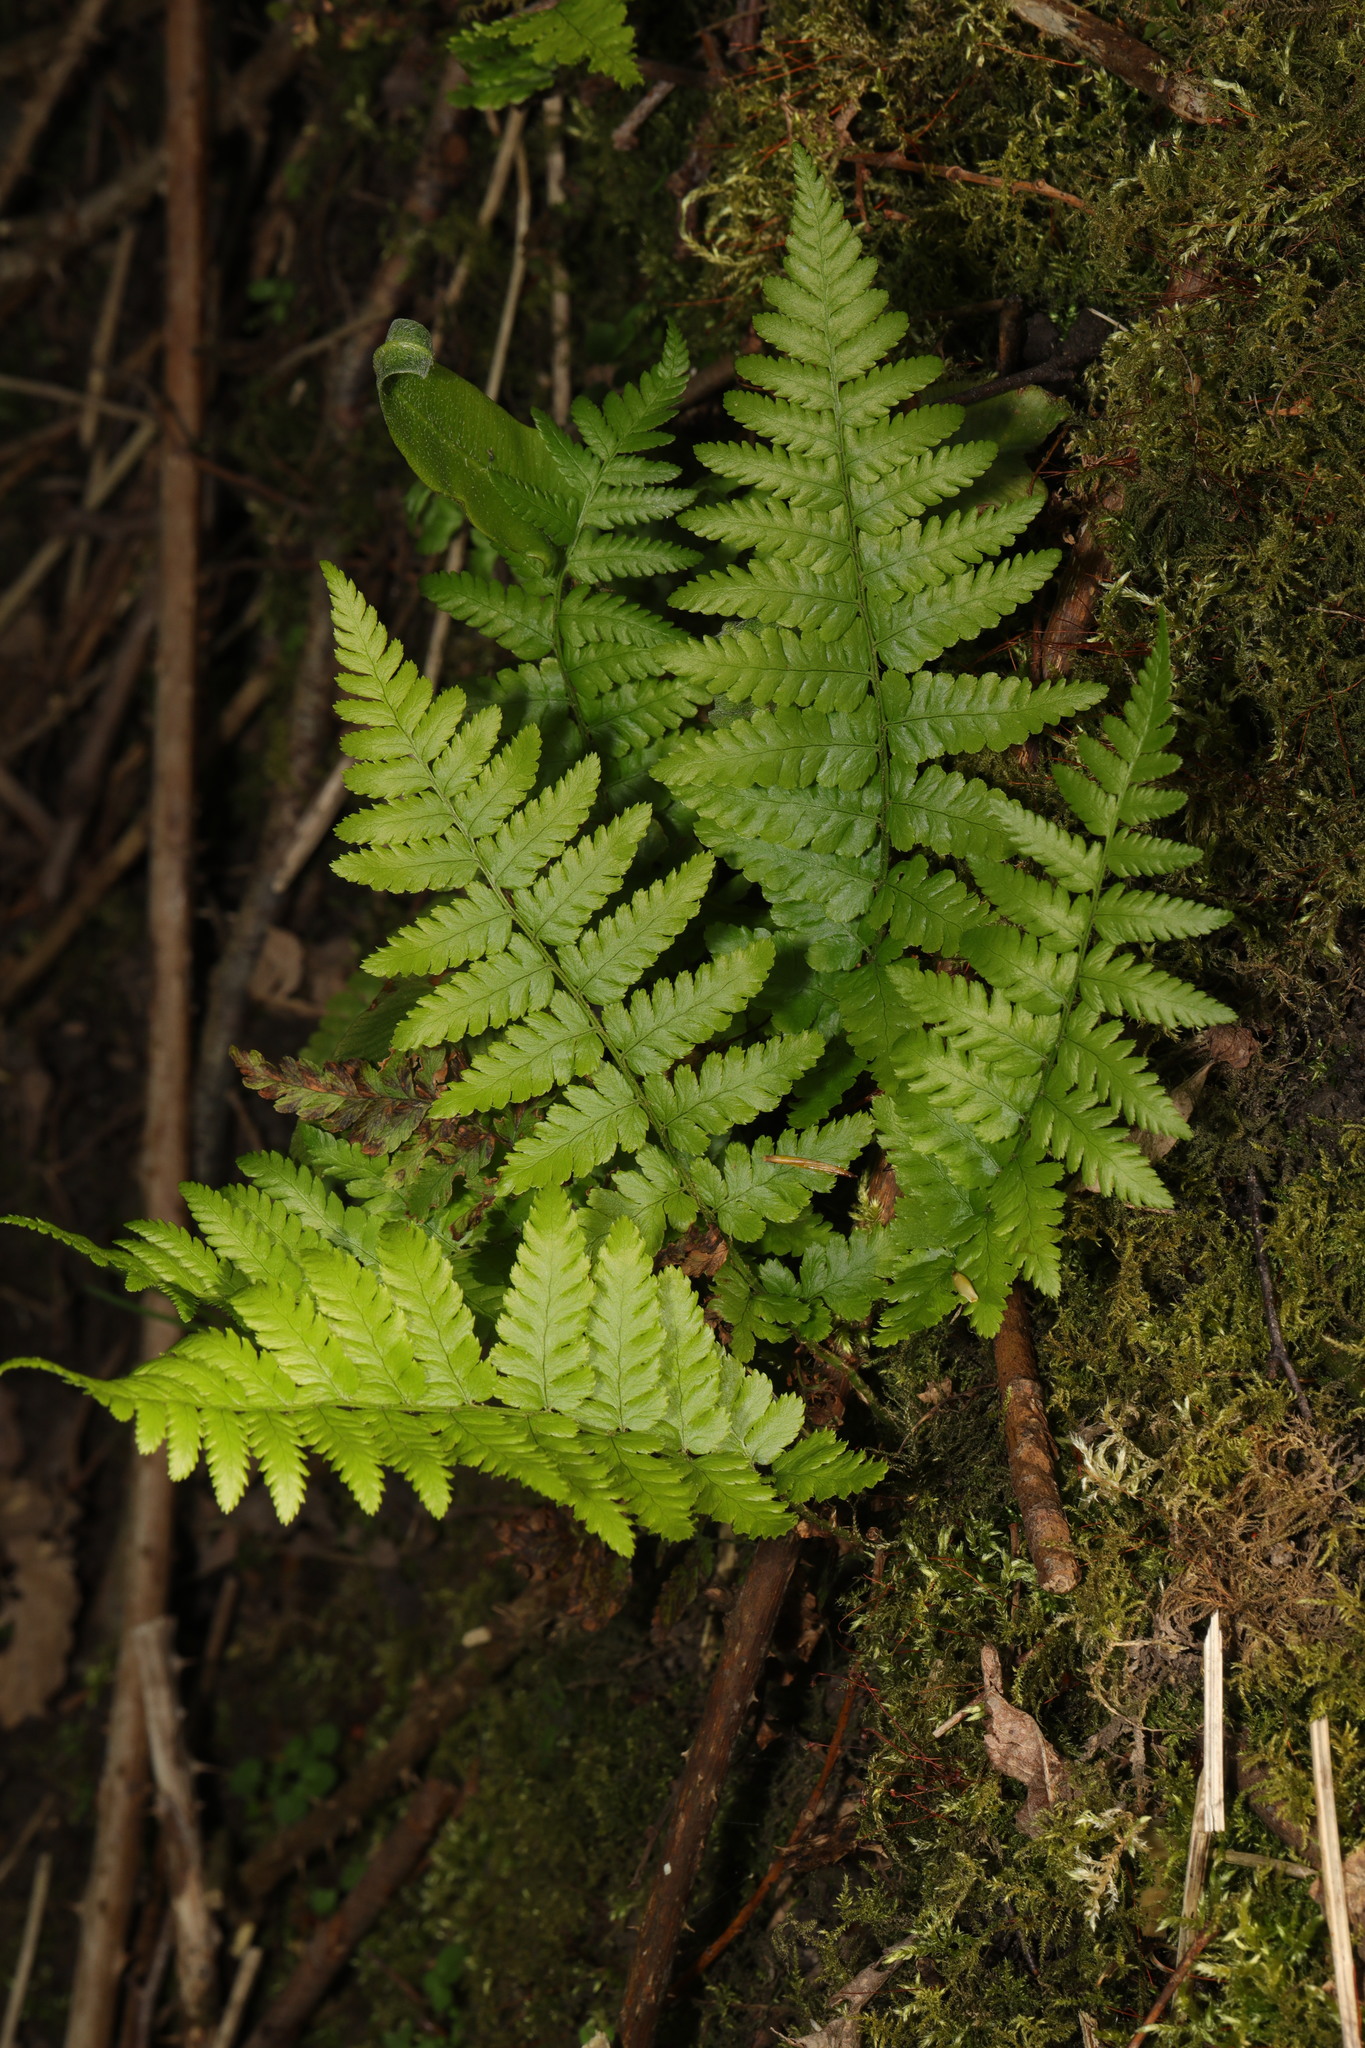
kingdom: Plantae
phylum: Tracheophyta
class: Polypodiopsida
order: Polypodiales
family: Dryopteridaceae
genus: Dryopteris
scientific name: Dryopteris filix-mas
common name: Male fern
